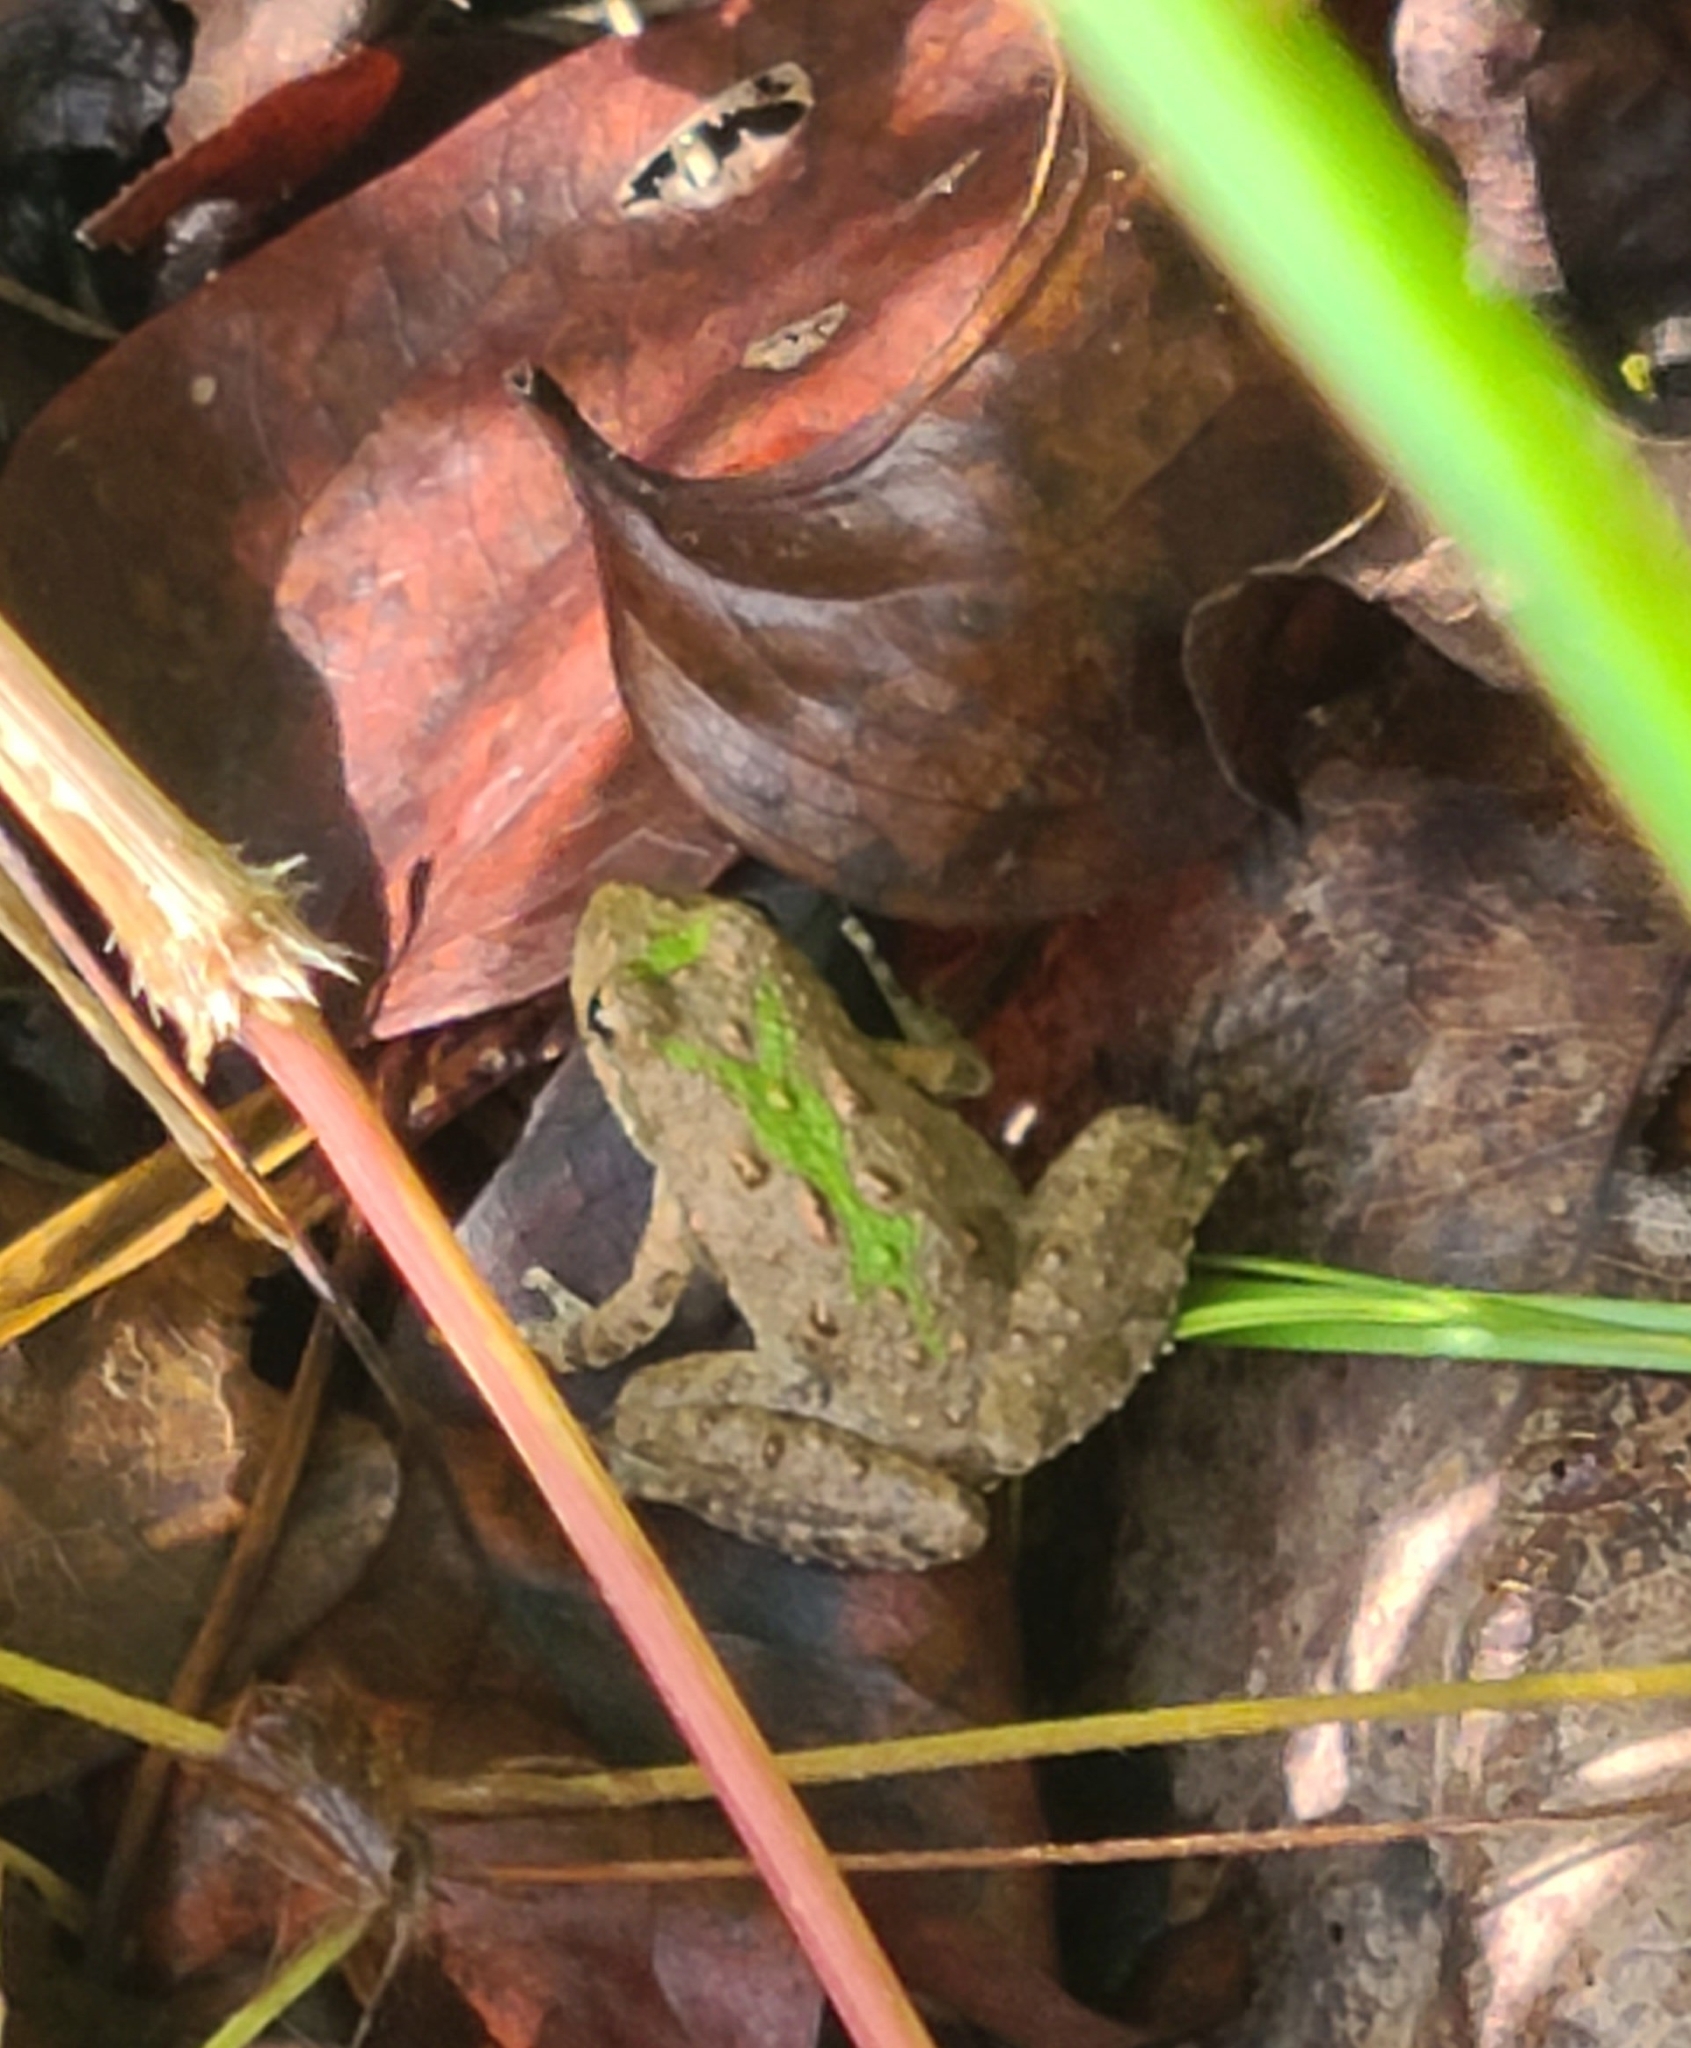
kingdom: Animalia
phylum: Chordata
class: Amphibia
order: Anura
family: Hylidae
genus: Acris
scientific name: Acris crepitans
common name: Northern cricket frog
